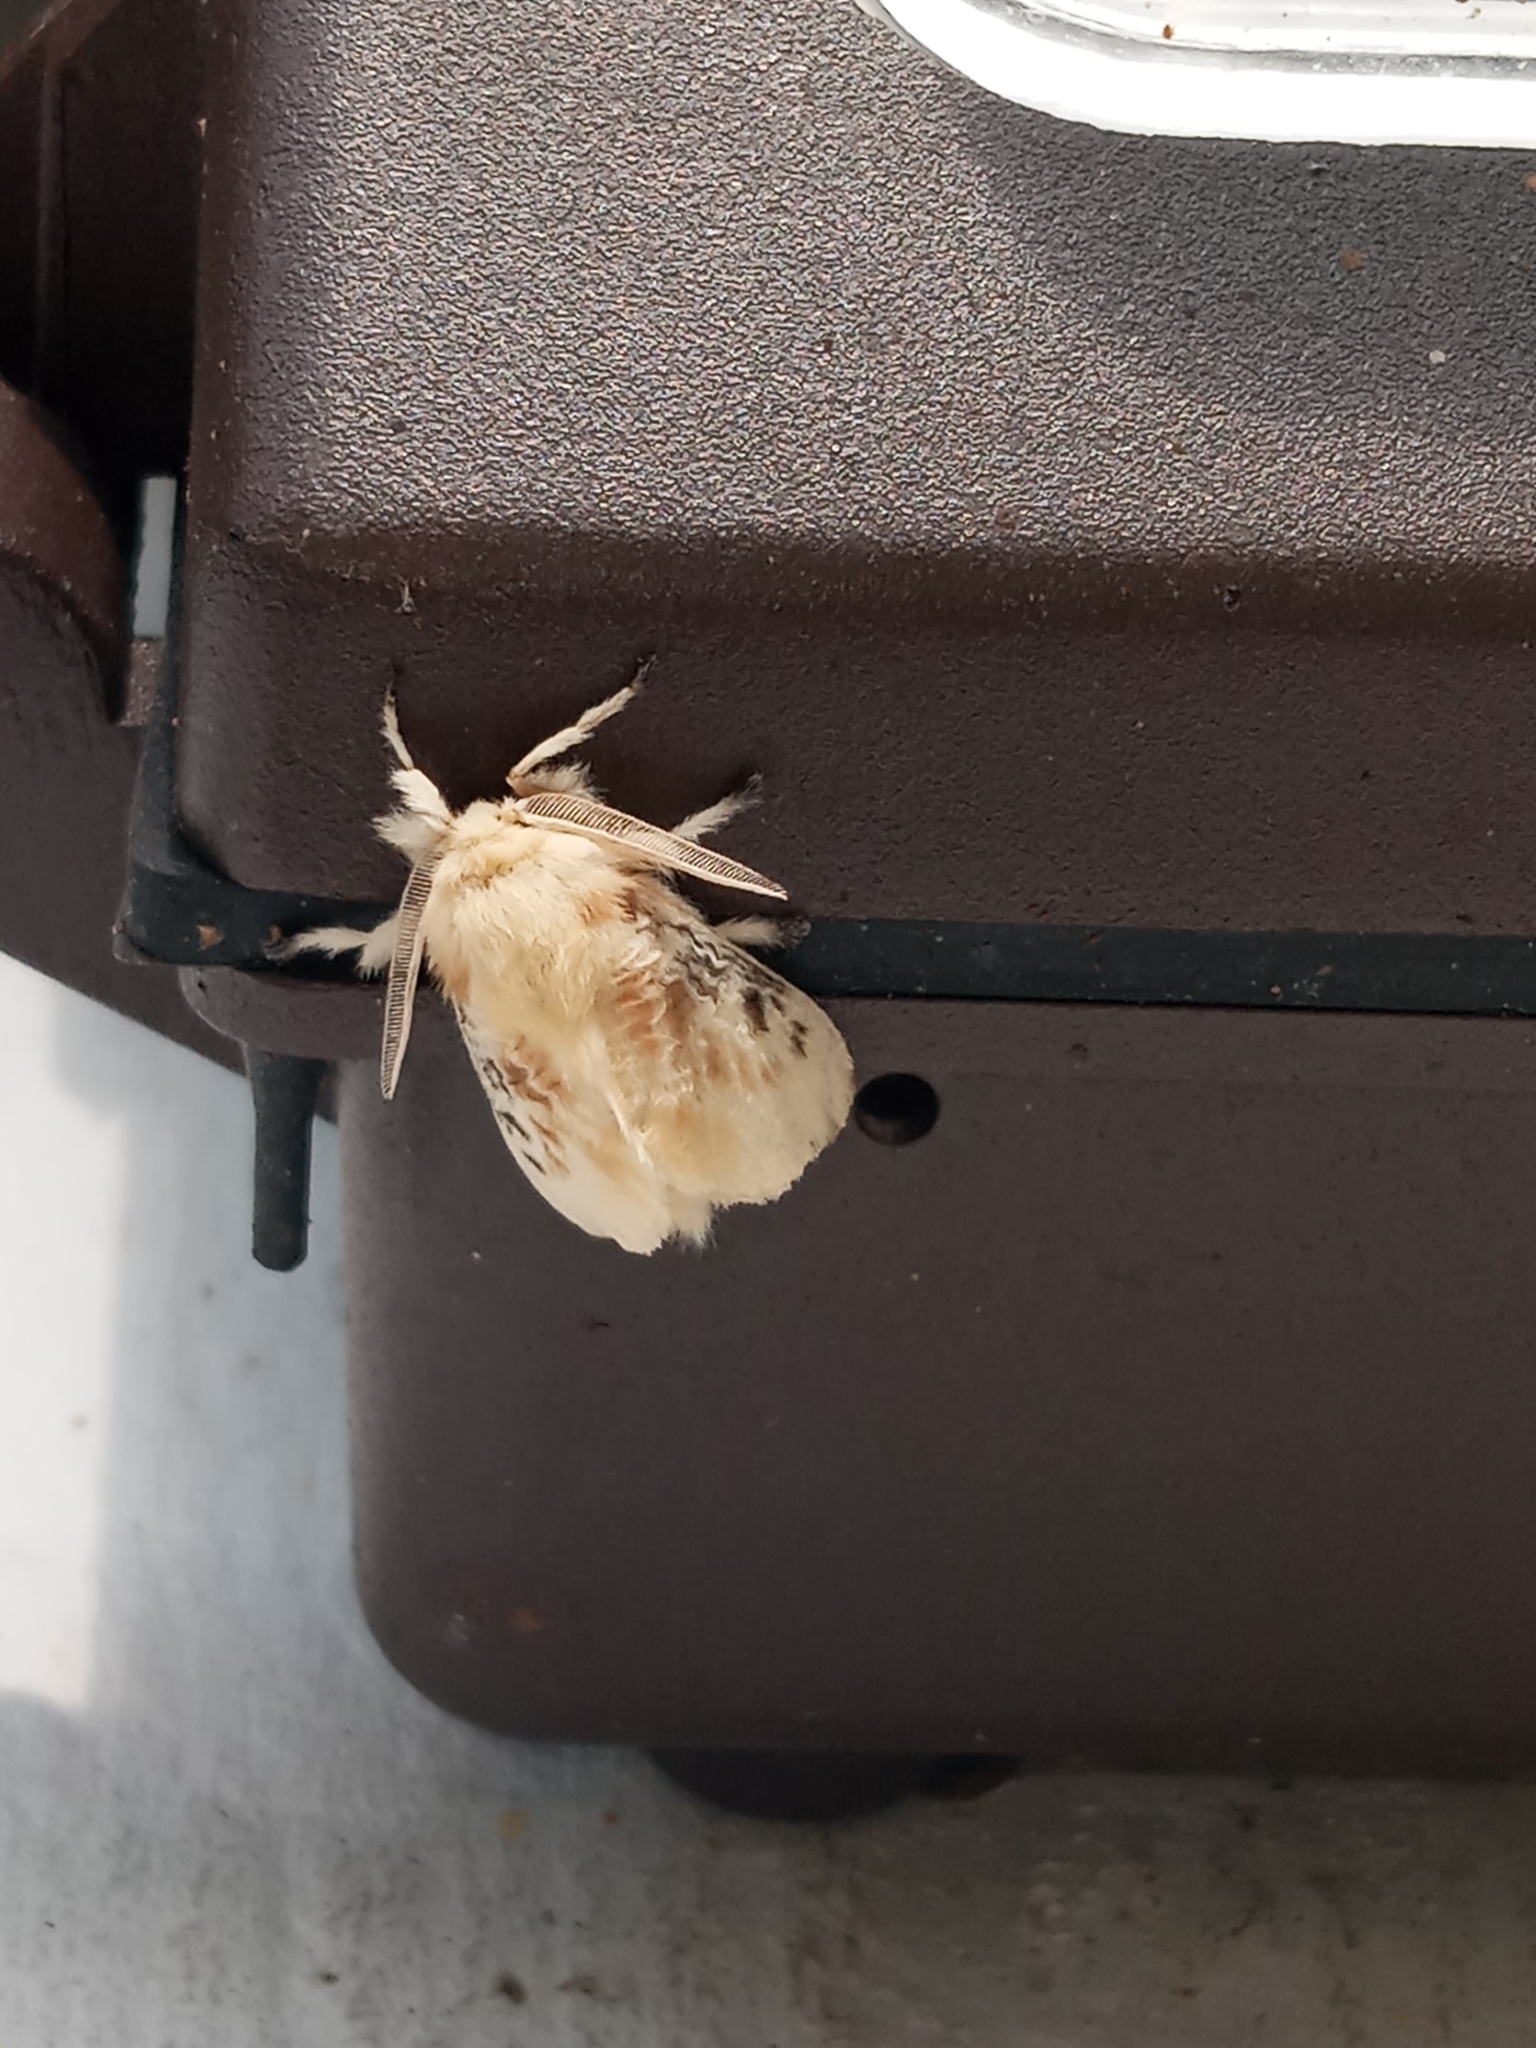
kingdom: Animalia
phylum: Arthropoda
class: Insecta
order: Lepidoptera
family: Megalopygidae
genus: Megalopyge
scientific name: Megalopyge crispata
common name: Black-waved flannel moth
